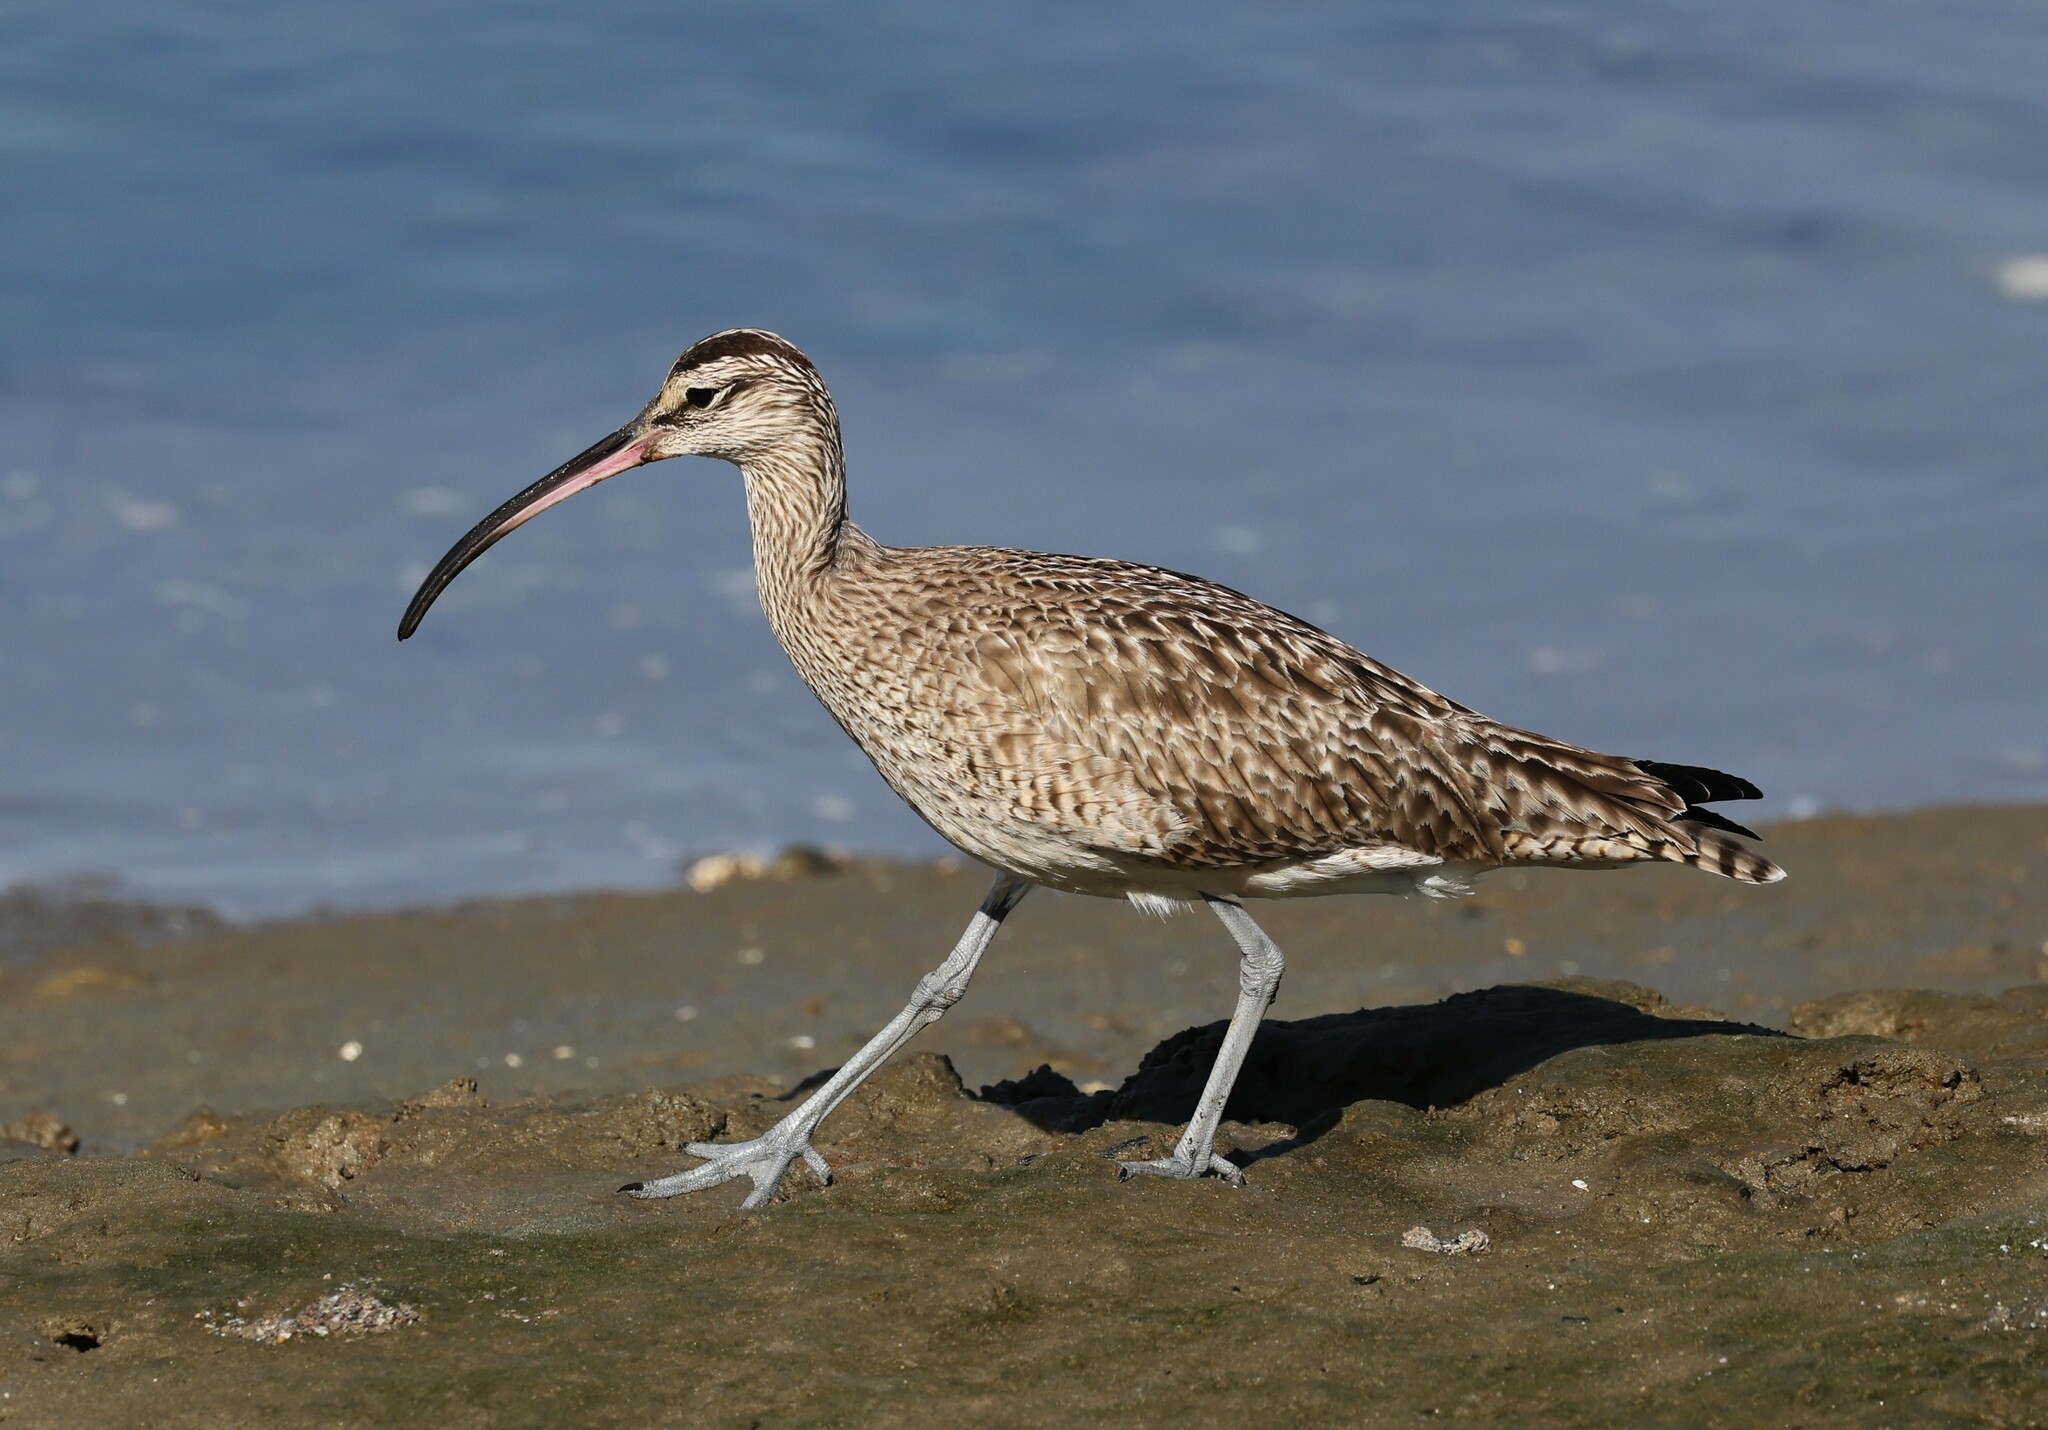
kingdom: Animalia
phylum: Chordata
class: Aves
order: Charadriiformes
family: Scolopacidae
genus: Numenius
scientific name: Numenius phaeopus
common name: Whimbrel
